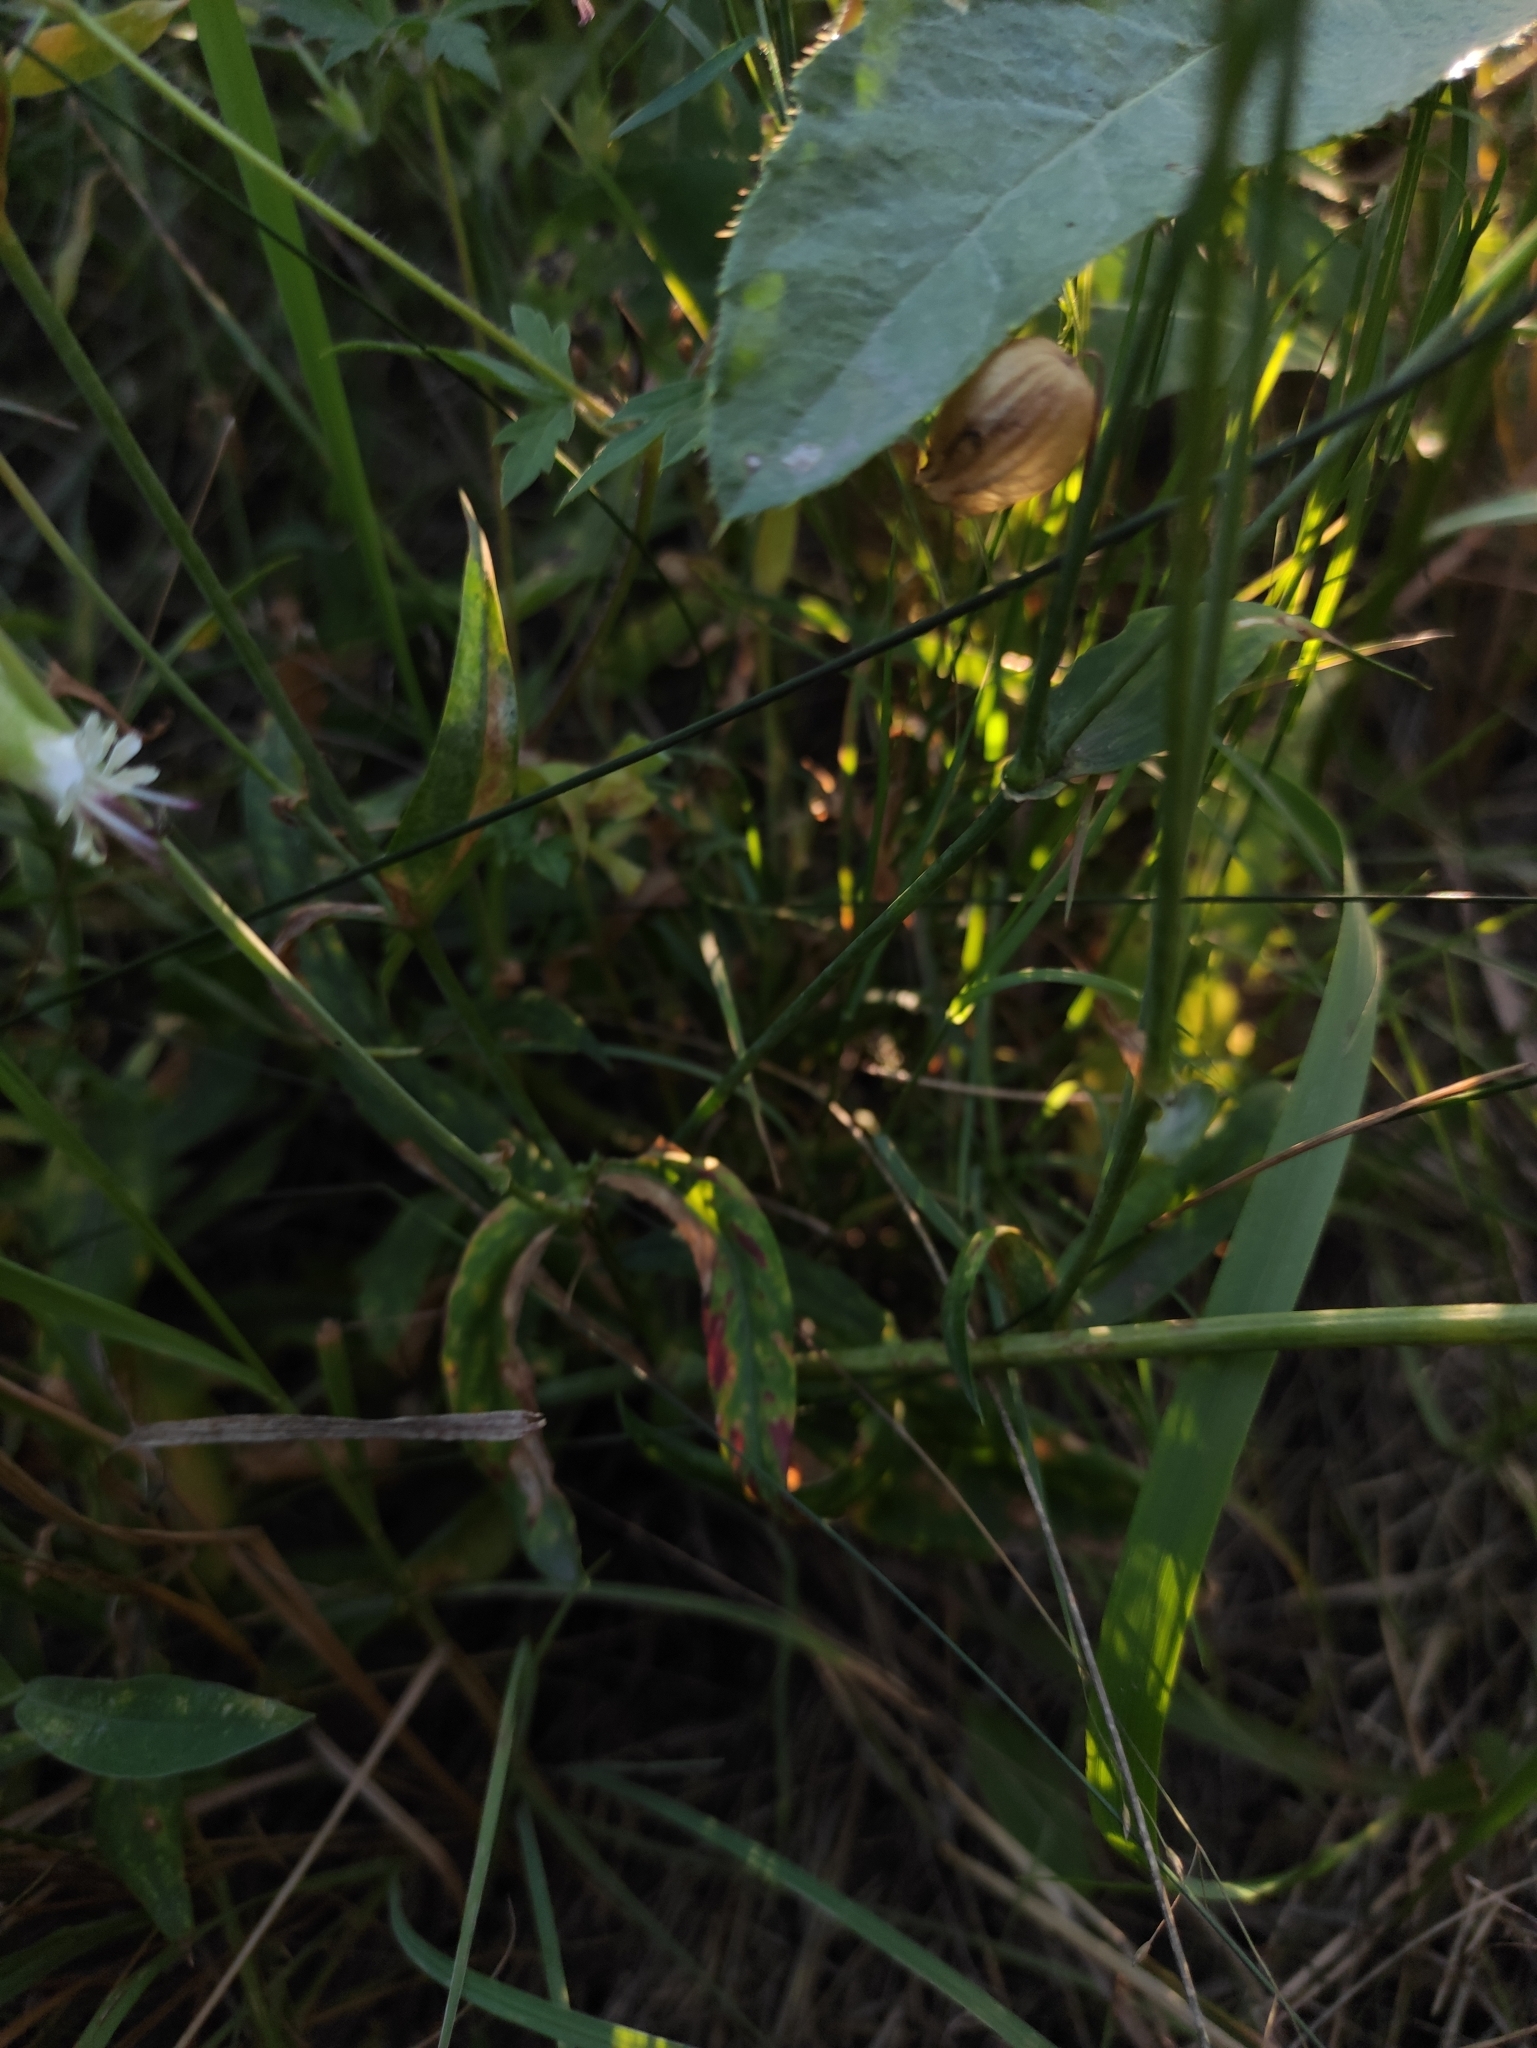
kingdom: Plantae
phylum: Tracheophyta
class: Magnoliopsida
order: Caryophyllales
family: Caryophyllaceae
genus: Silene
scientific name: Silene vulgaris
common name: Bladder campion
